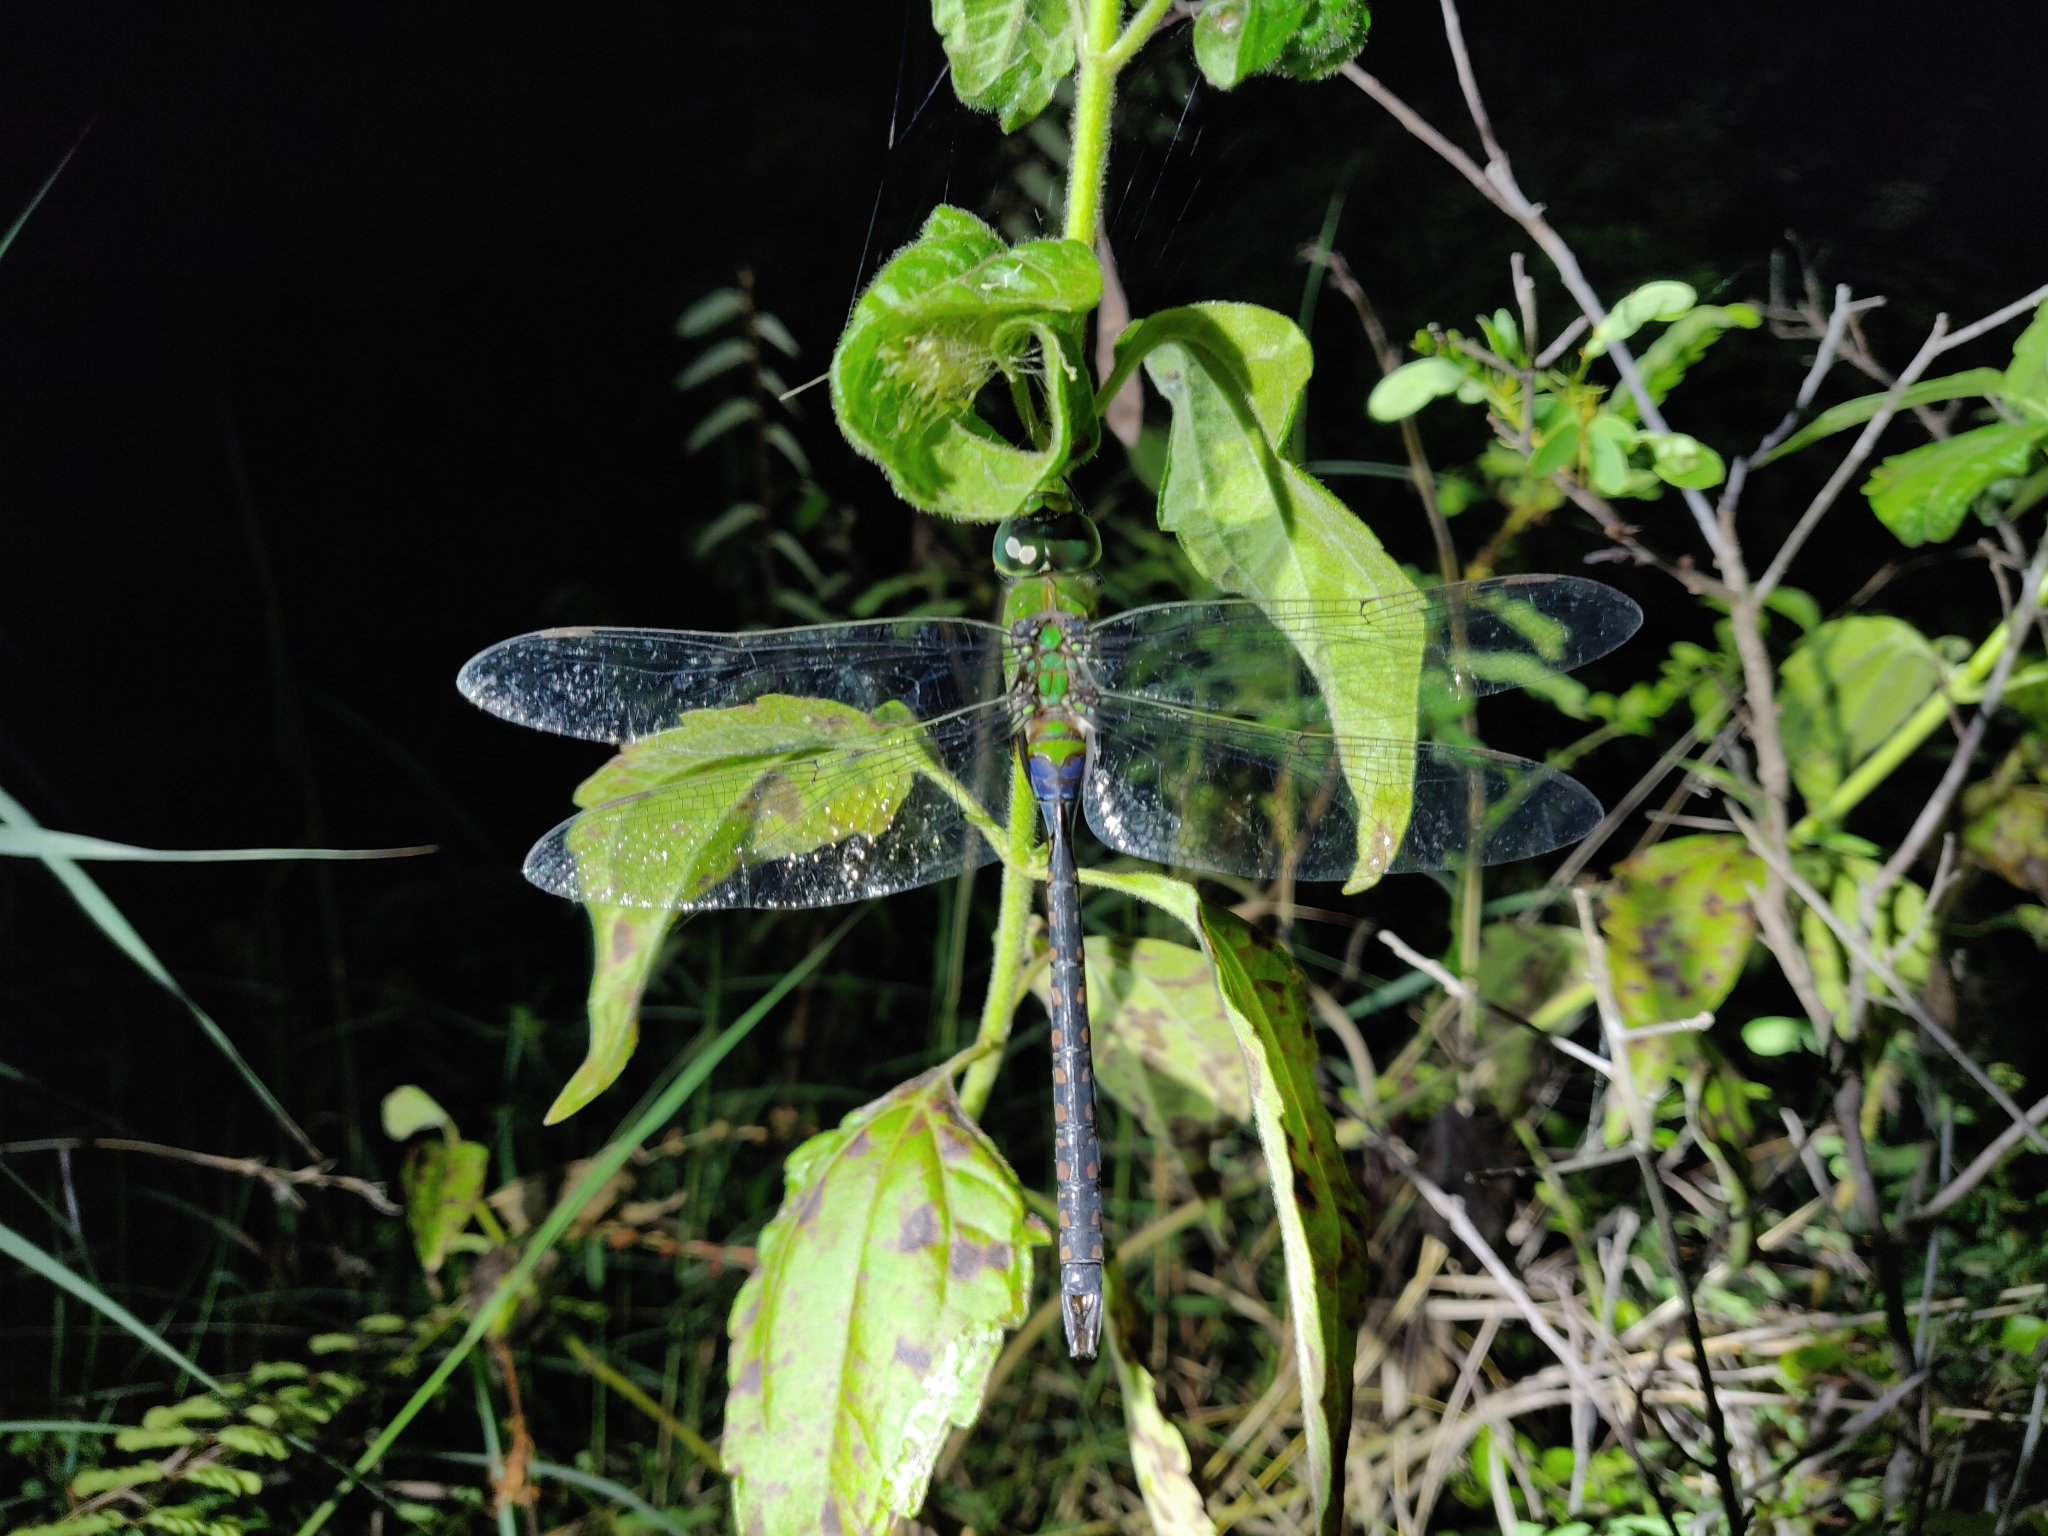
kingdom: Animalia
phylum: Arthropoda
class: Insecta
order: Odonata
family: Aeshnidae
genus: Anax
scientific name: Anax guttatus
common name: Emperor
